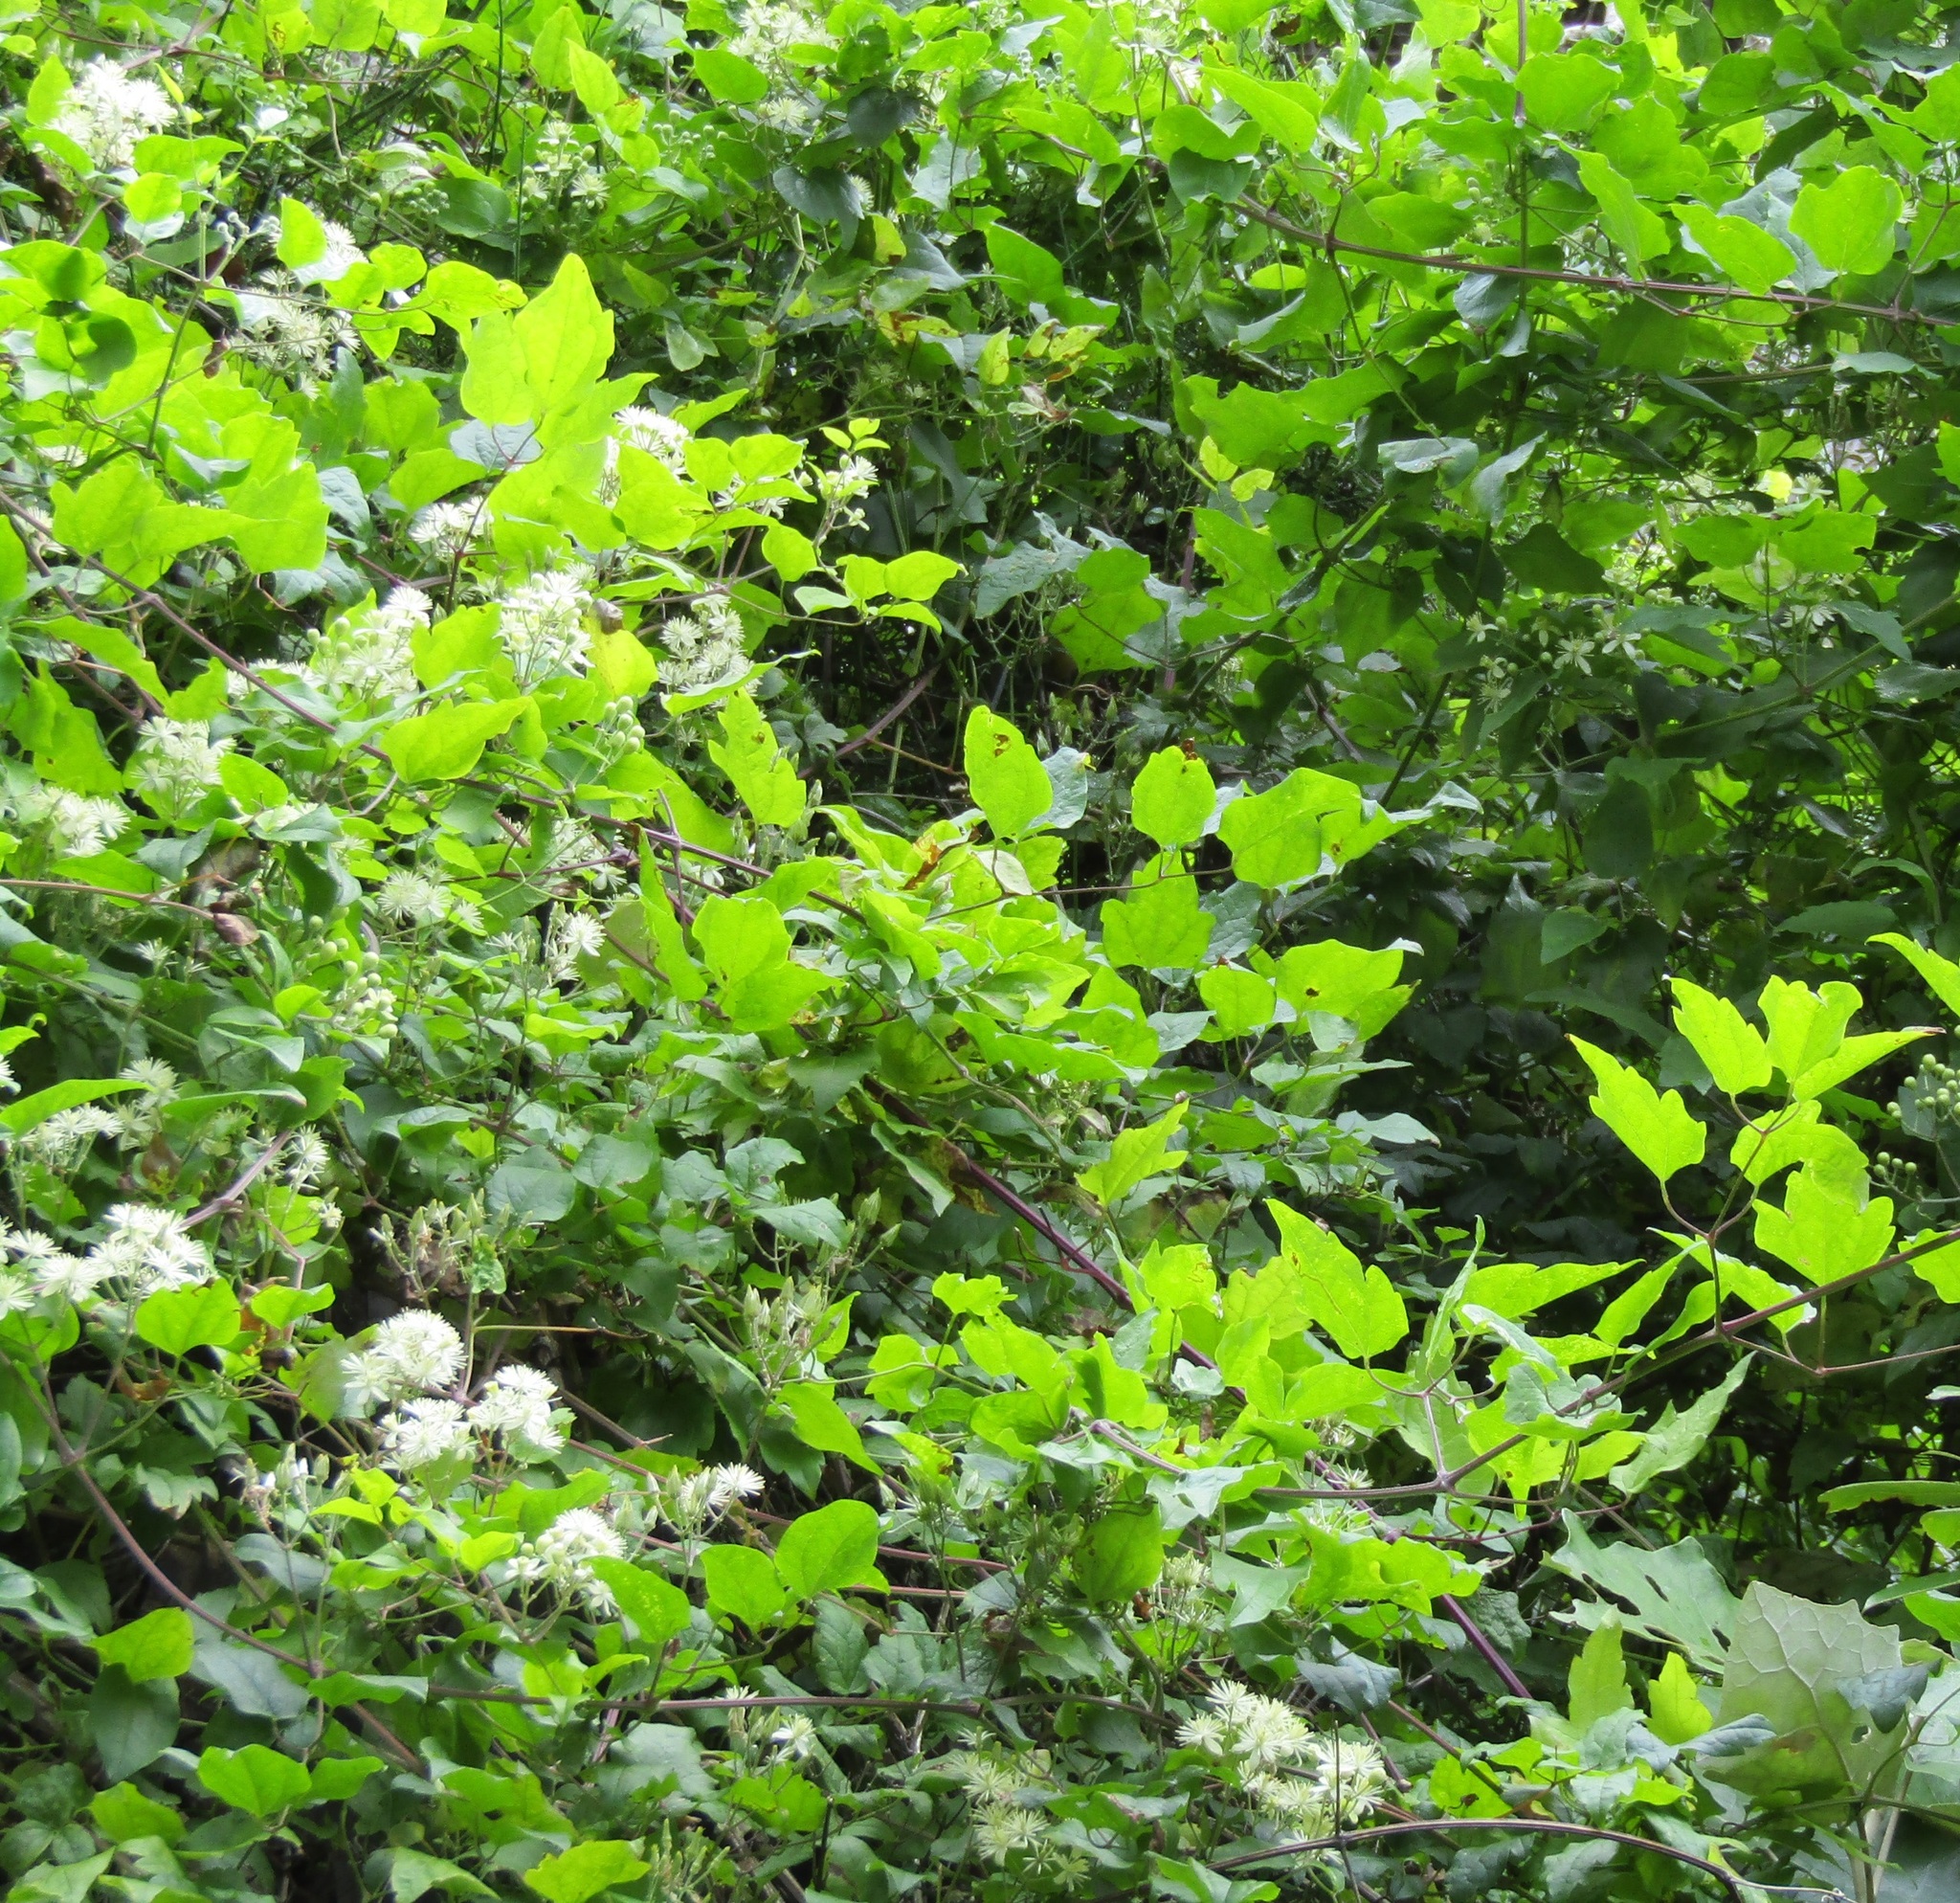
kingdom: Plantae
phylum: Tracheophyta
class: Magnoliopsida
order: Ranunculales
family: Ranunculaceae
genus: Clematis
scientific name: Clematis vitalba
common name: Evergreen clematis
